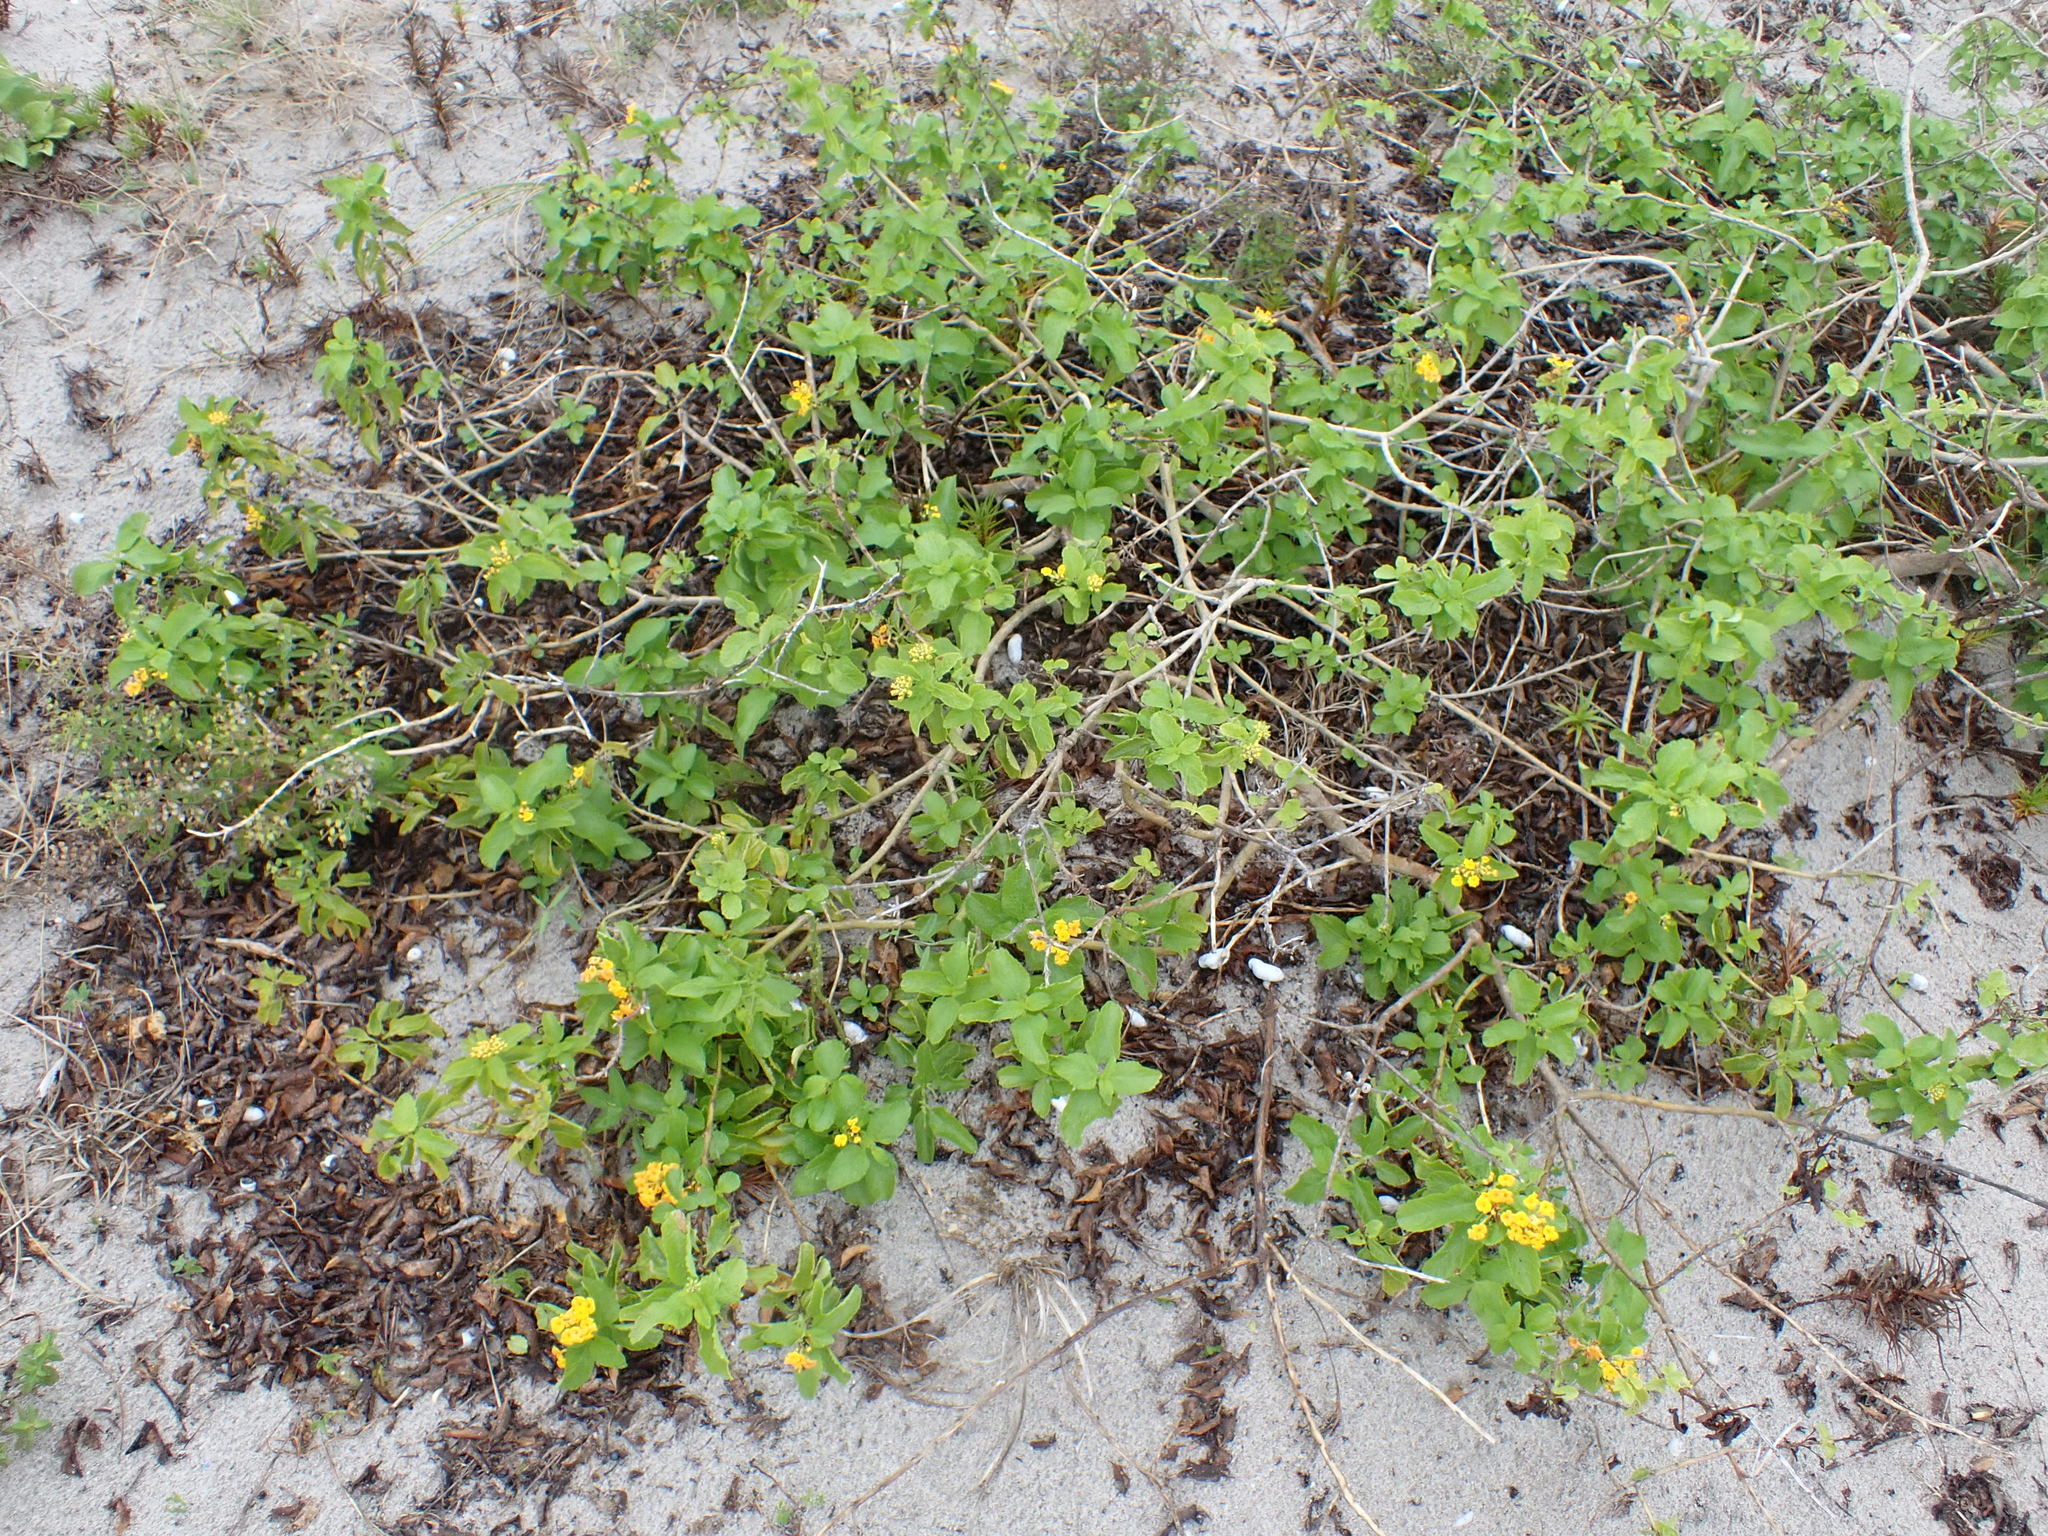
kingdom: Plantae
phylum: Tracheophyta
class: Magnoliopsida
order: Lamiales
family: Verbenaceae
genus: Lantana
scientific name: Lantana depressa
